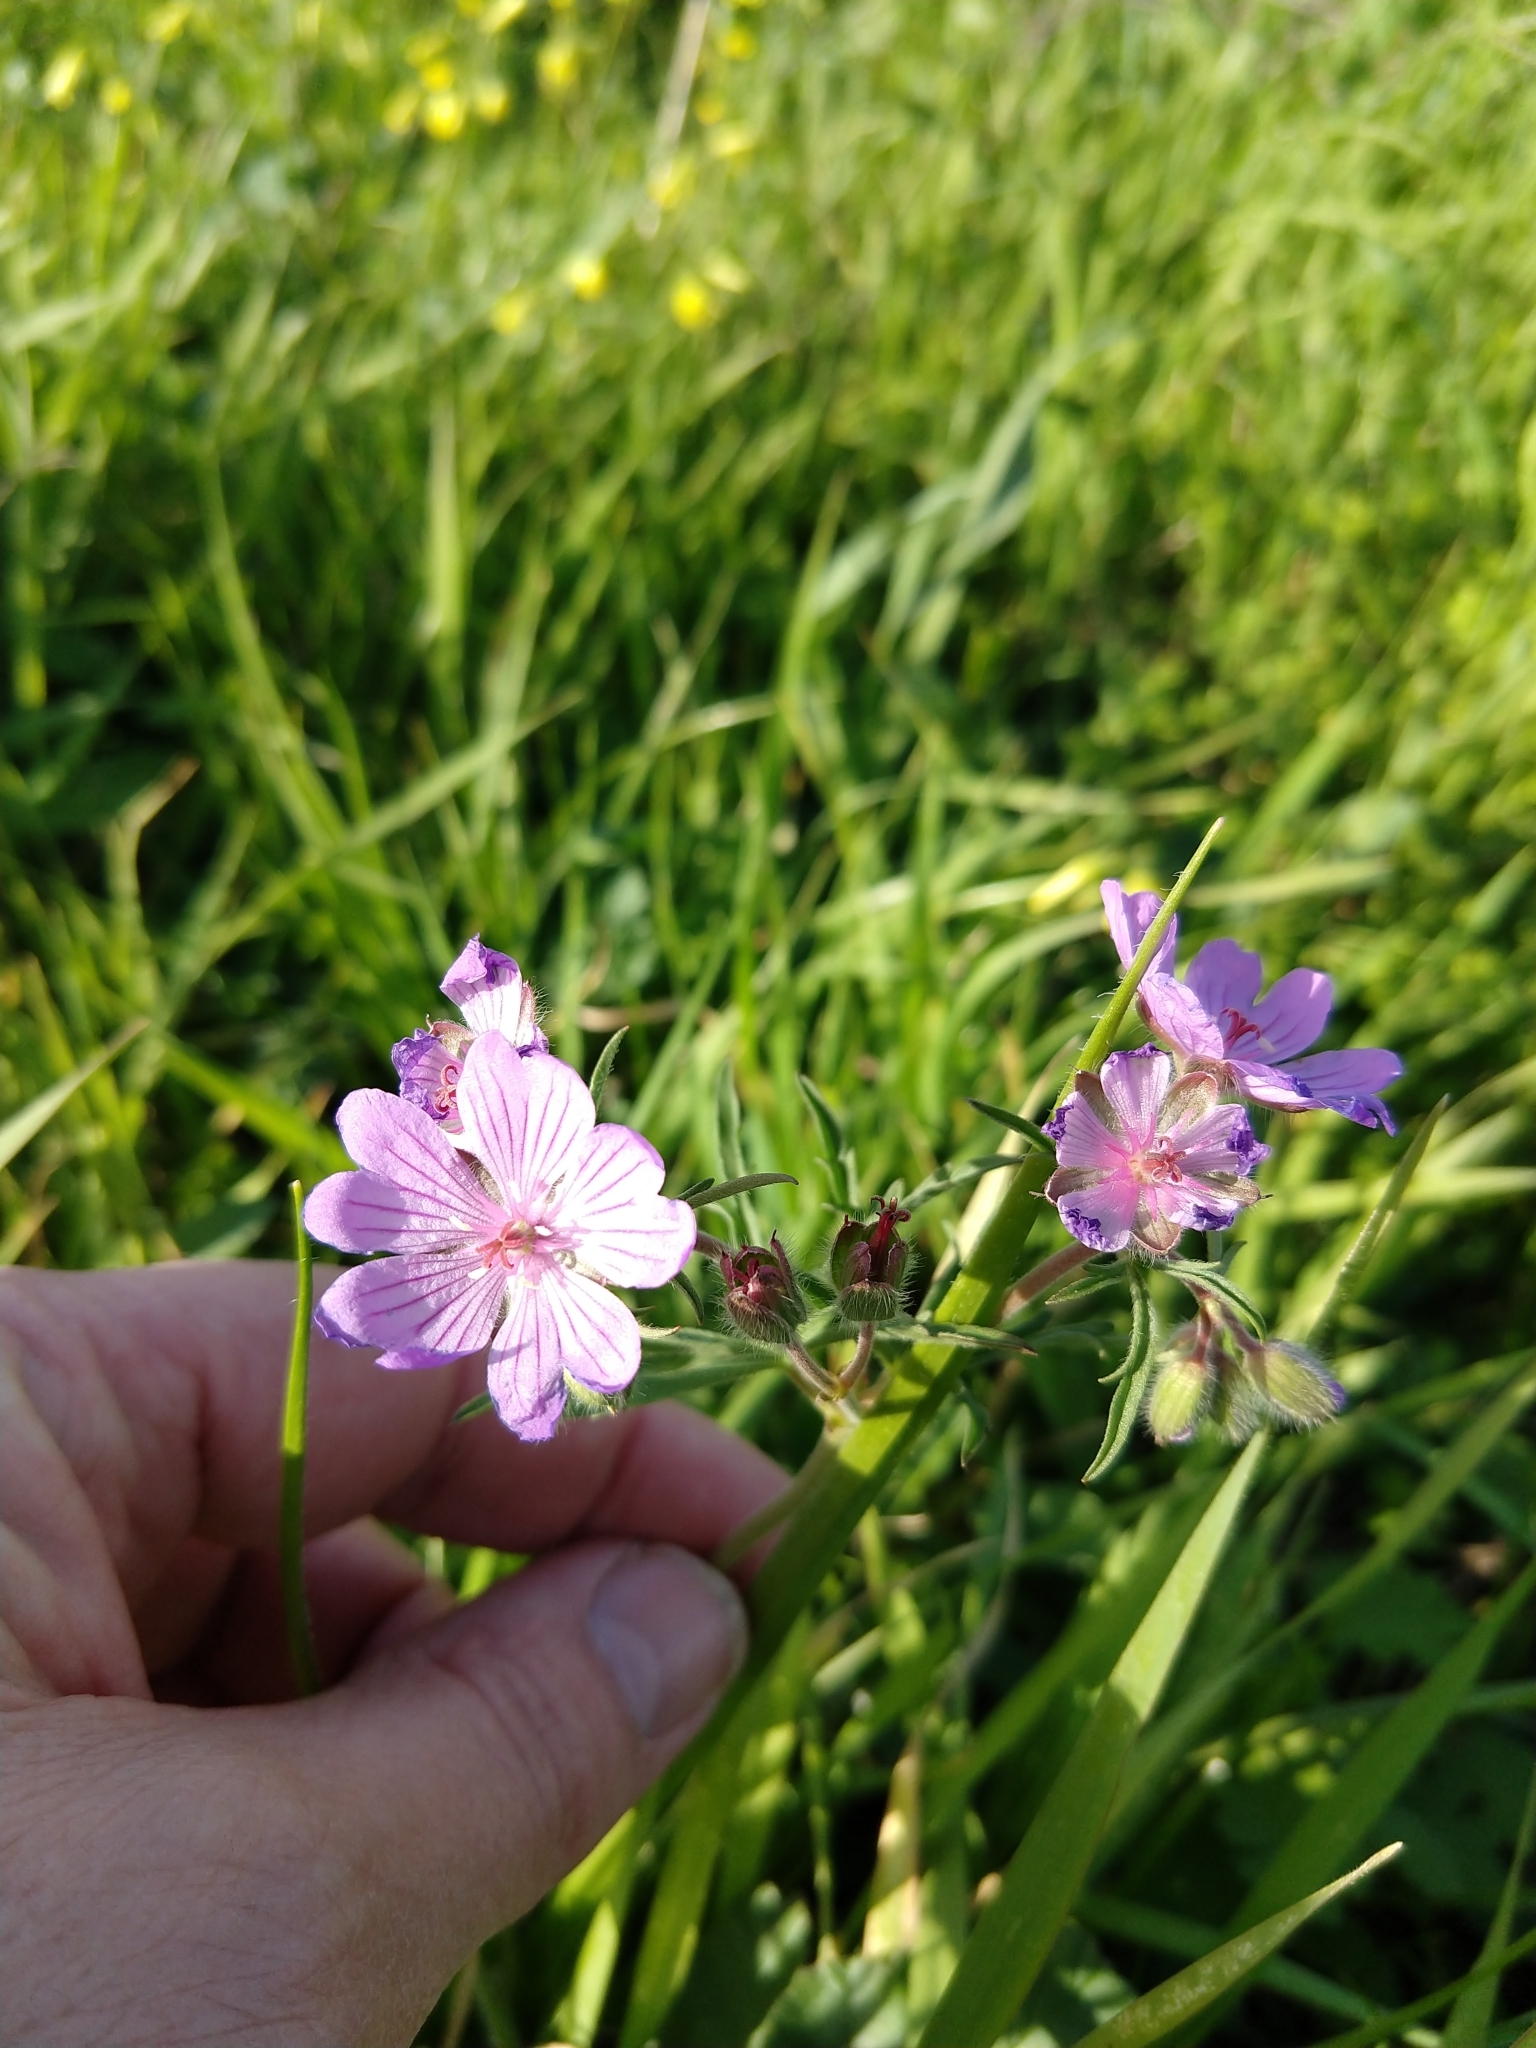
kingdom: Plantae
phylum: Tracheophyta
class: Magnoliopsida
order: Geraniales
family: Geraniaceae
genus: Geranium
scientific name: Geranium tuberosum
